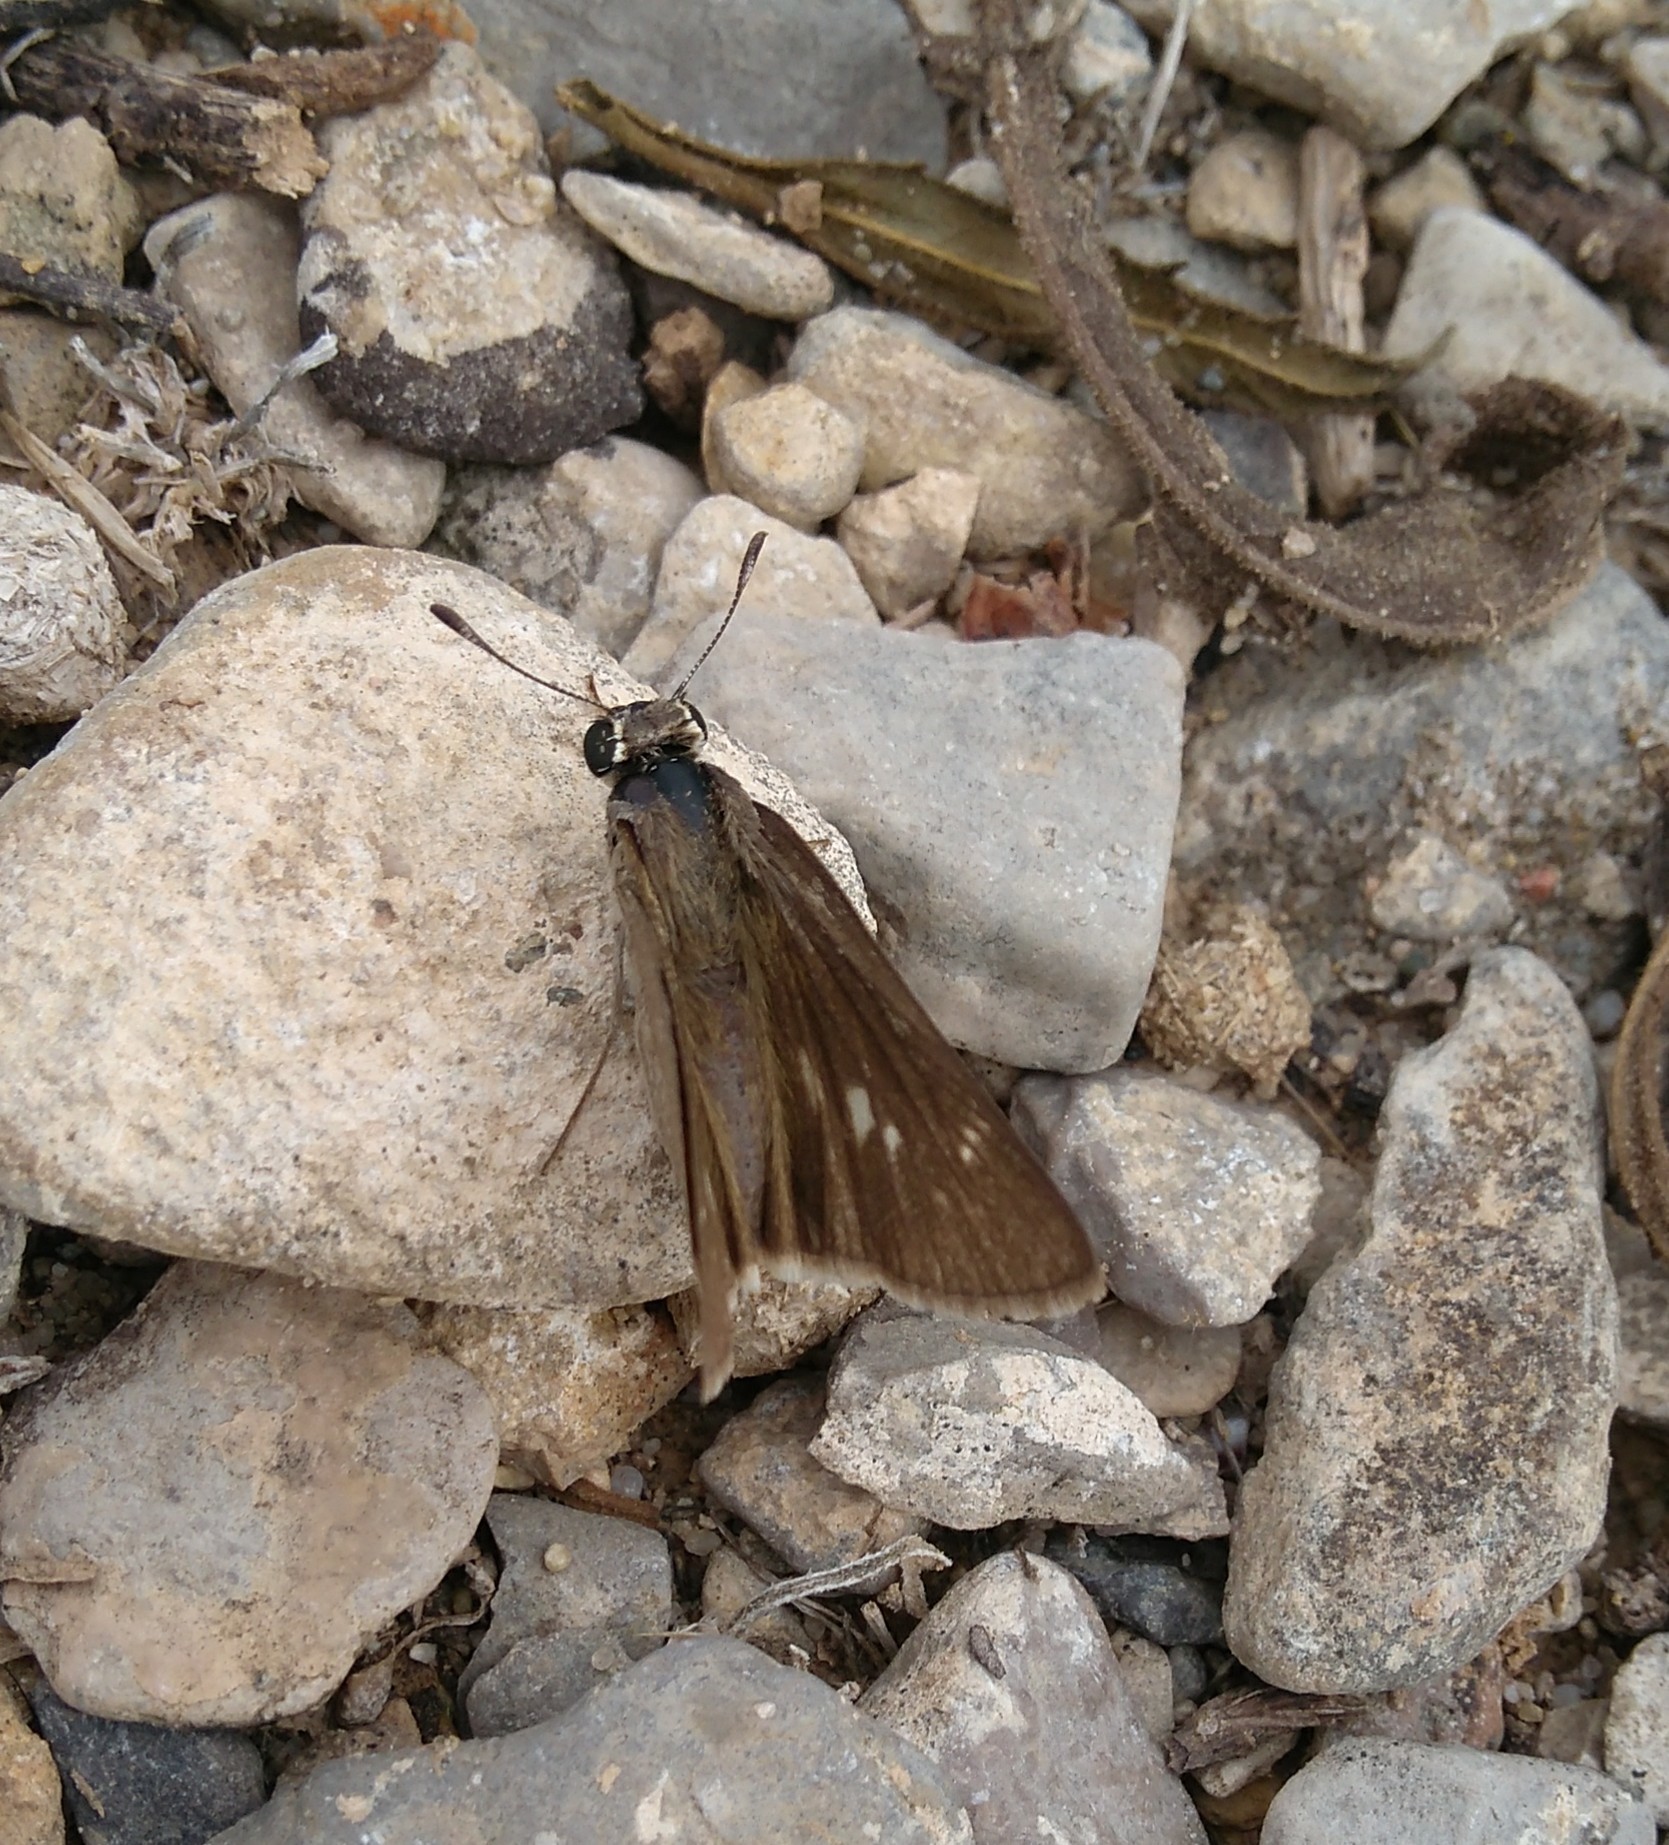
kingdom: Animalia
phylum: Arthropoda
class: Insecta
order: Lepidoptera
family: Hesperiidae
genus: Gegenes
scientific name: Gegenes nostrodamus
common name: Mediterranean skipper
